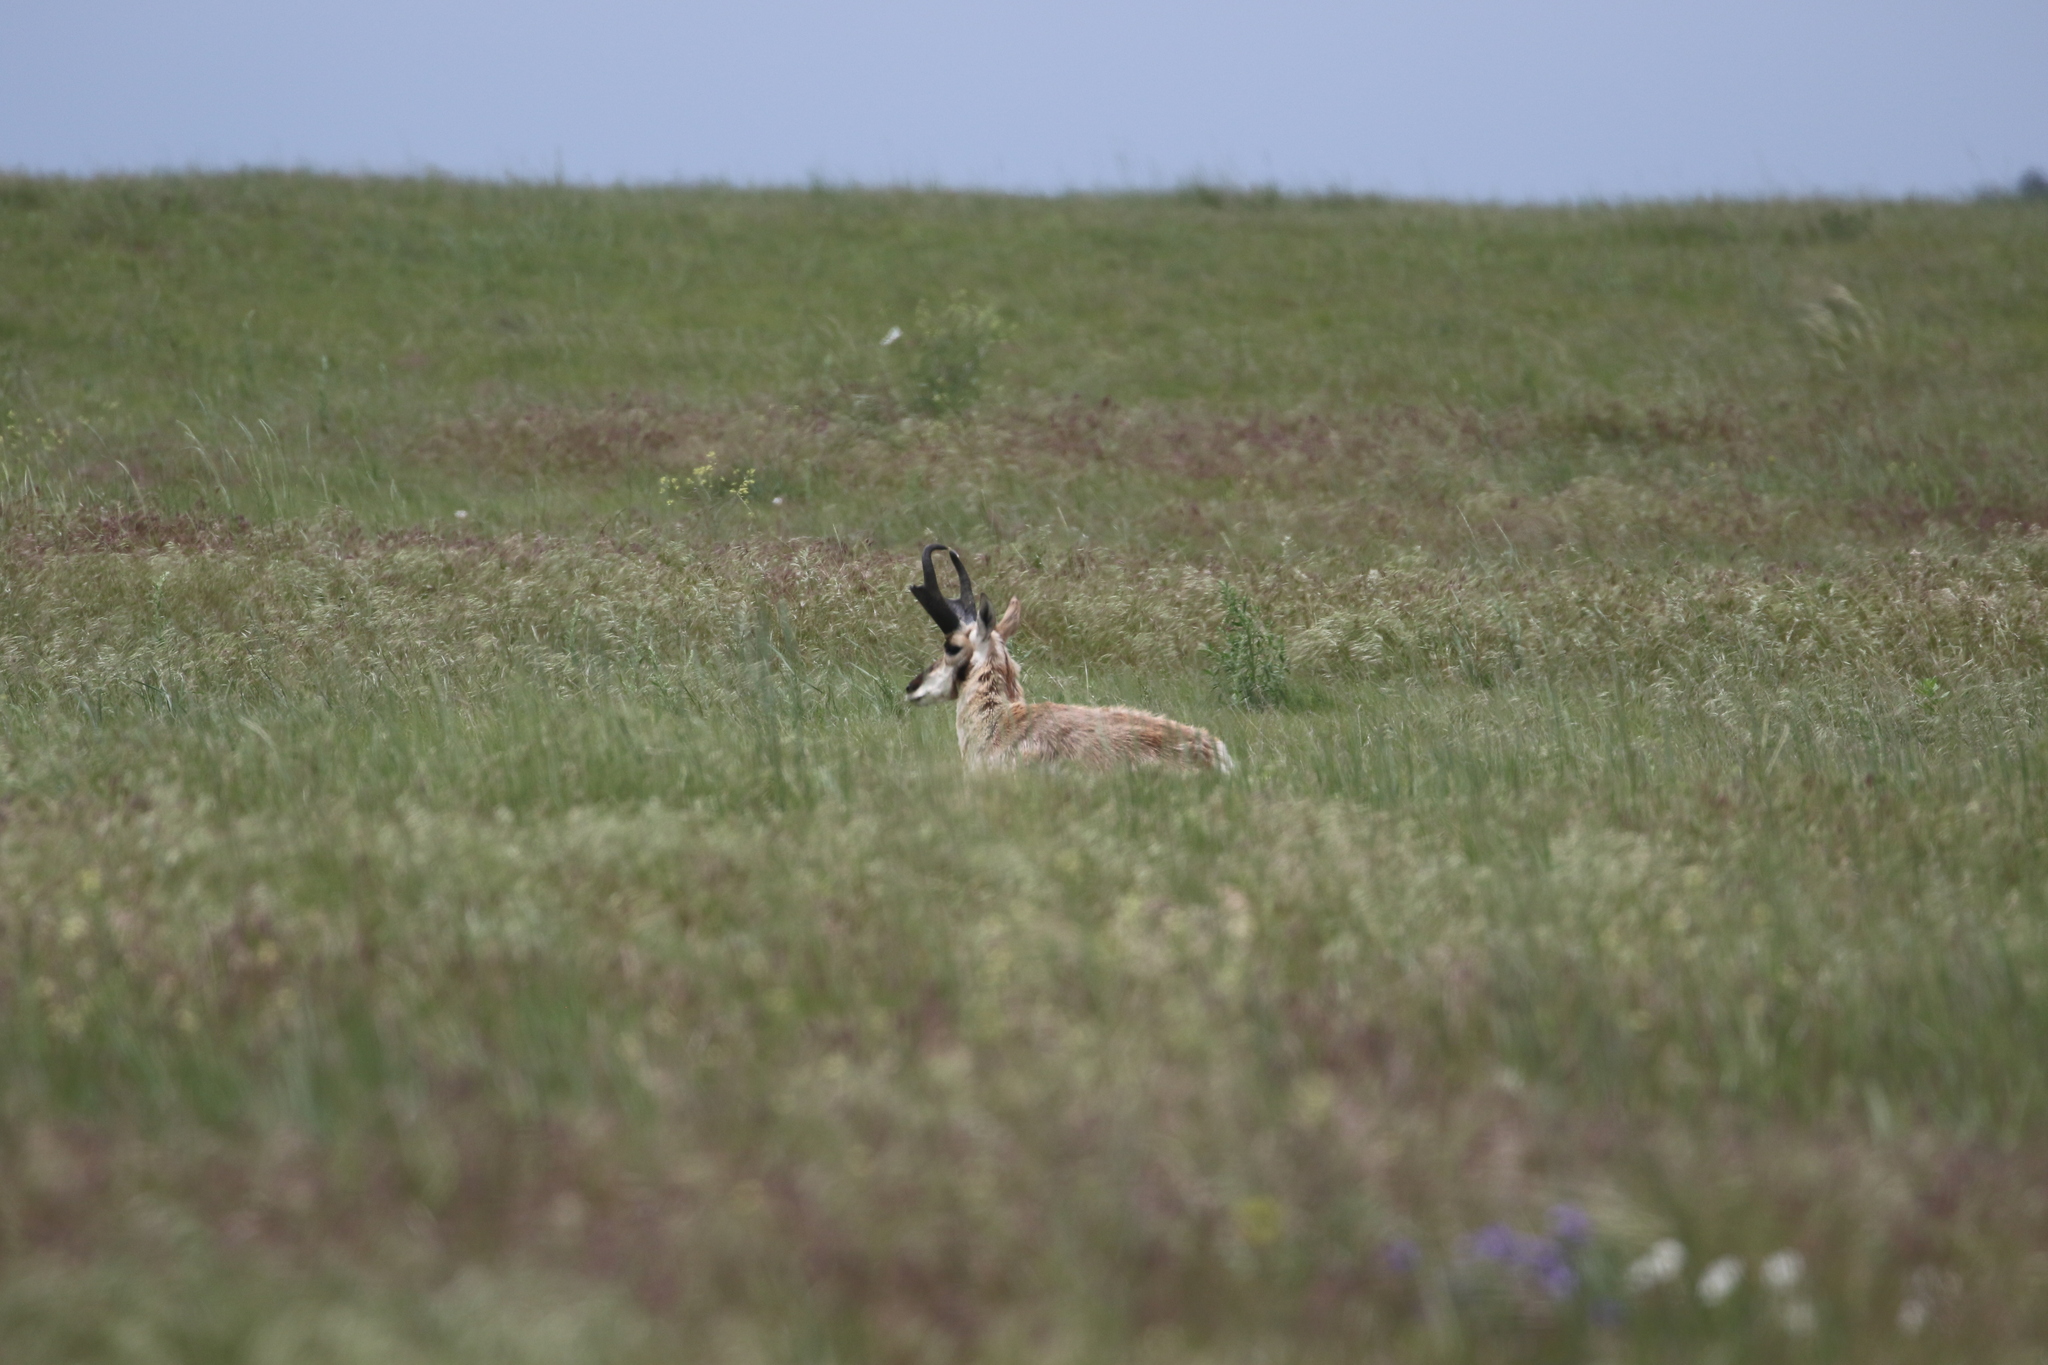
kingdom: Animalia
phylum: Chordata
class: Mammalia
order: Artiodactyla
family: Antilocapridae
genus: Antilocapra
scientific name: Antilocapra americana
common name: Pronghorn
